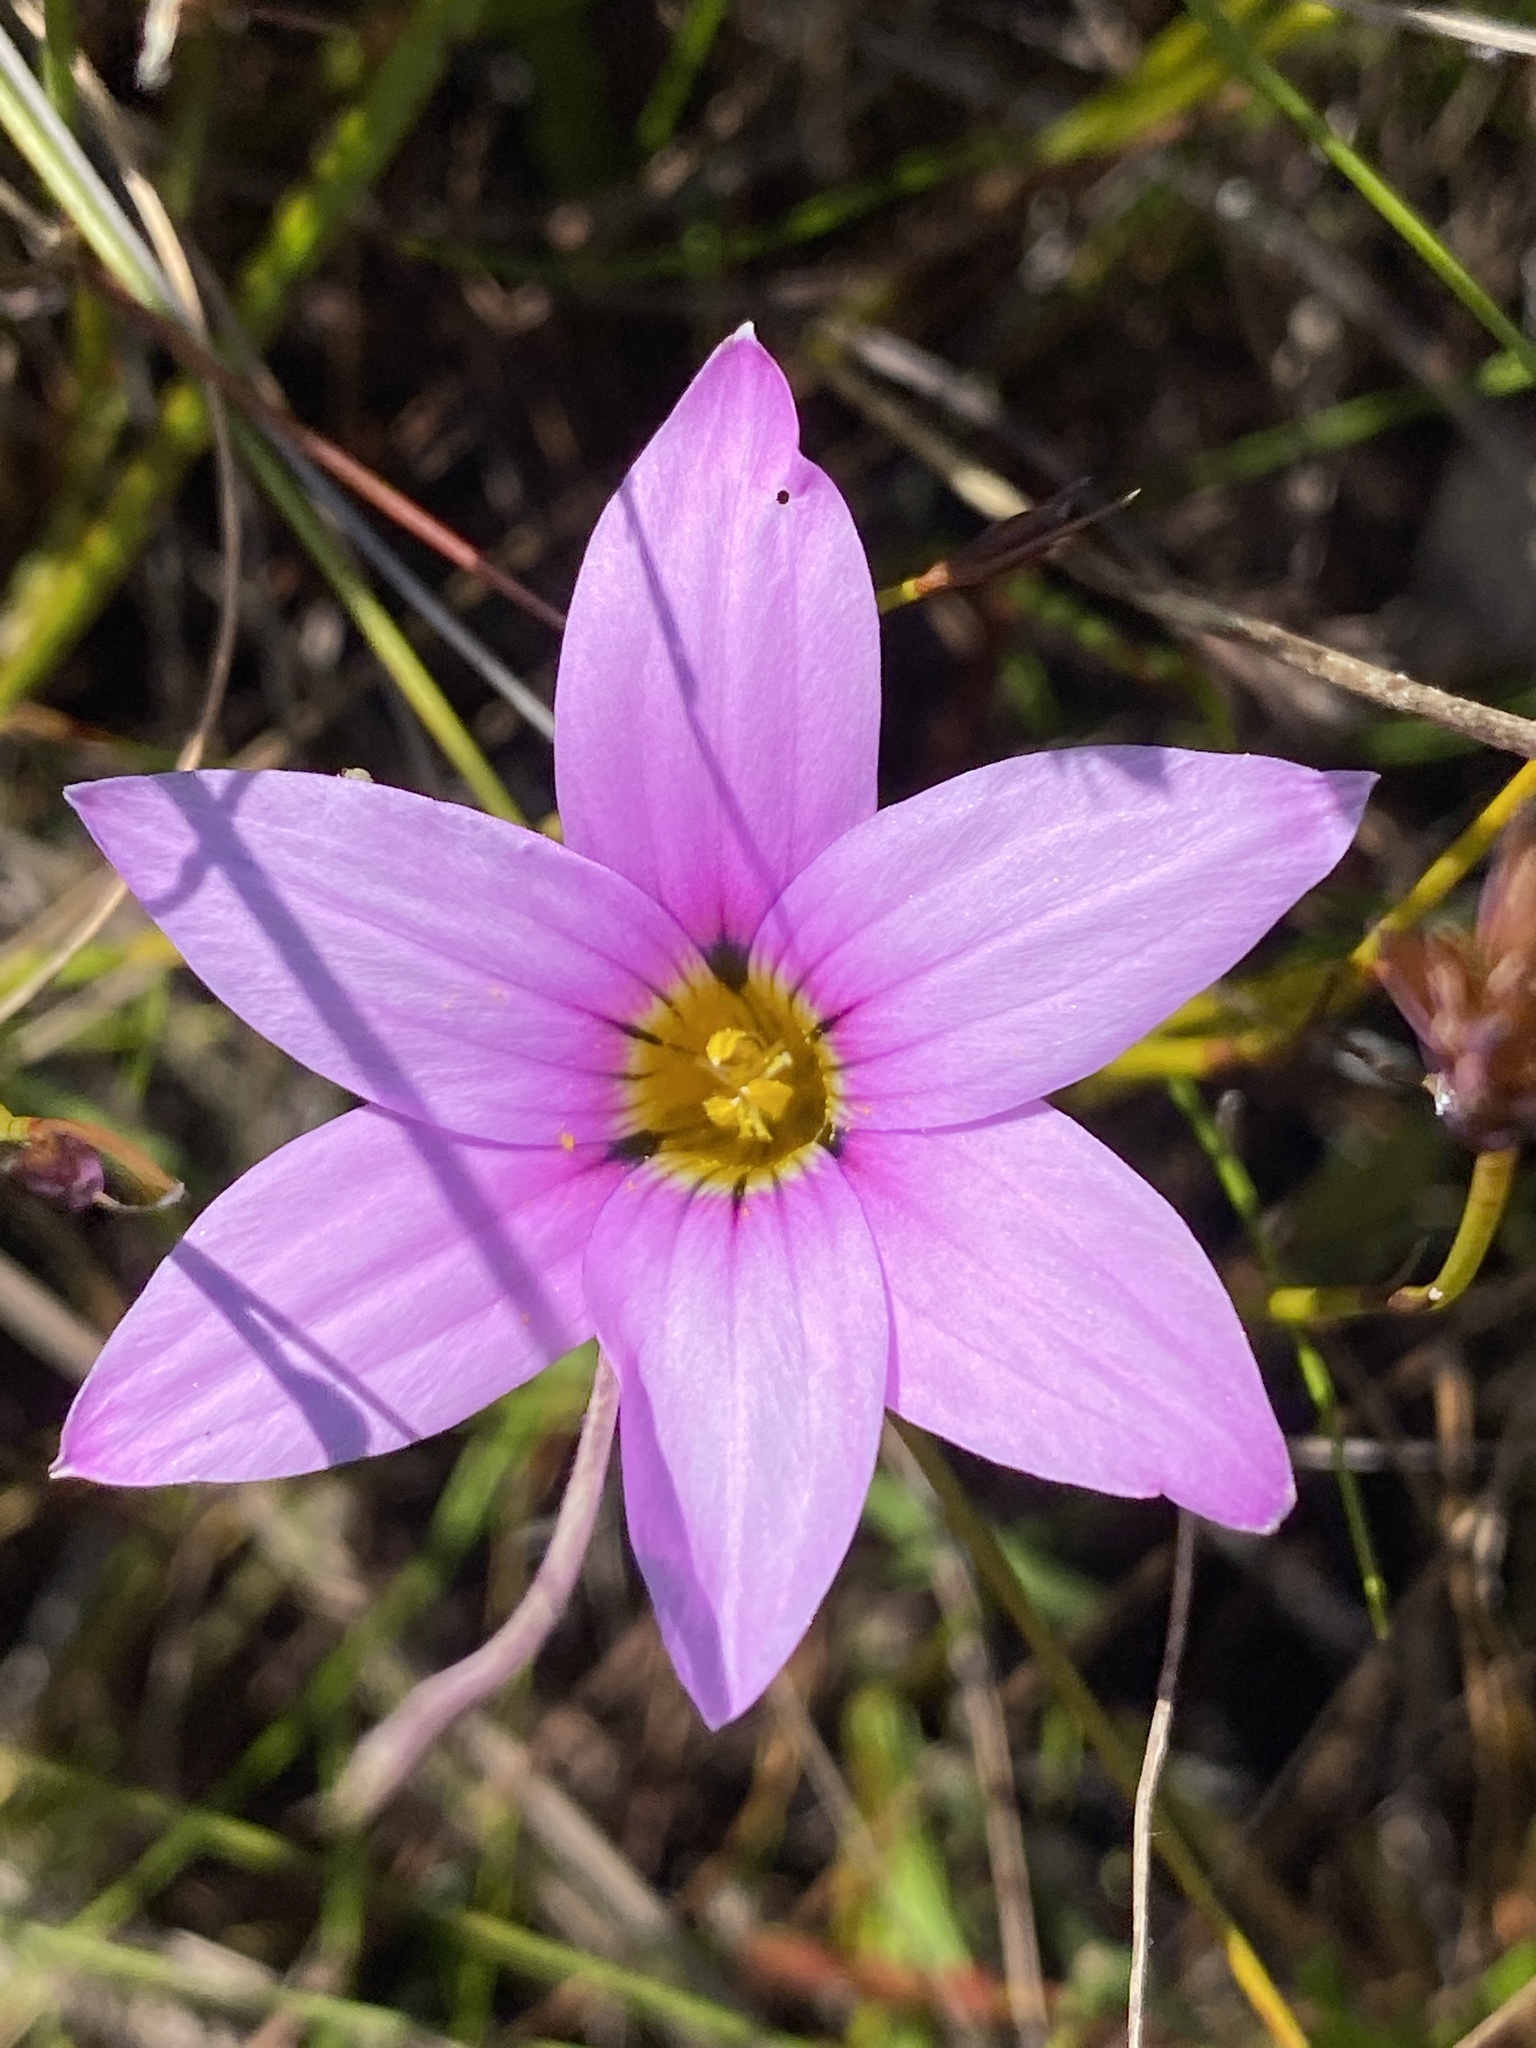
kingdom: Plantae
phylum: Tracheophyta
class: Liliopsida
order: Asparagales
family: Iridaceae
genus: Romulea
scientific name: Romulea rosea
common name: Oniongrass
